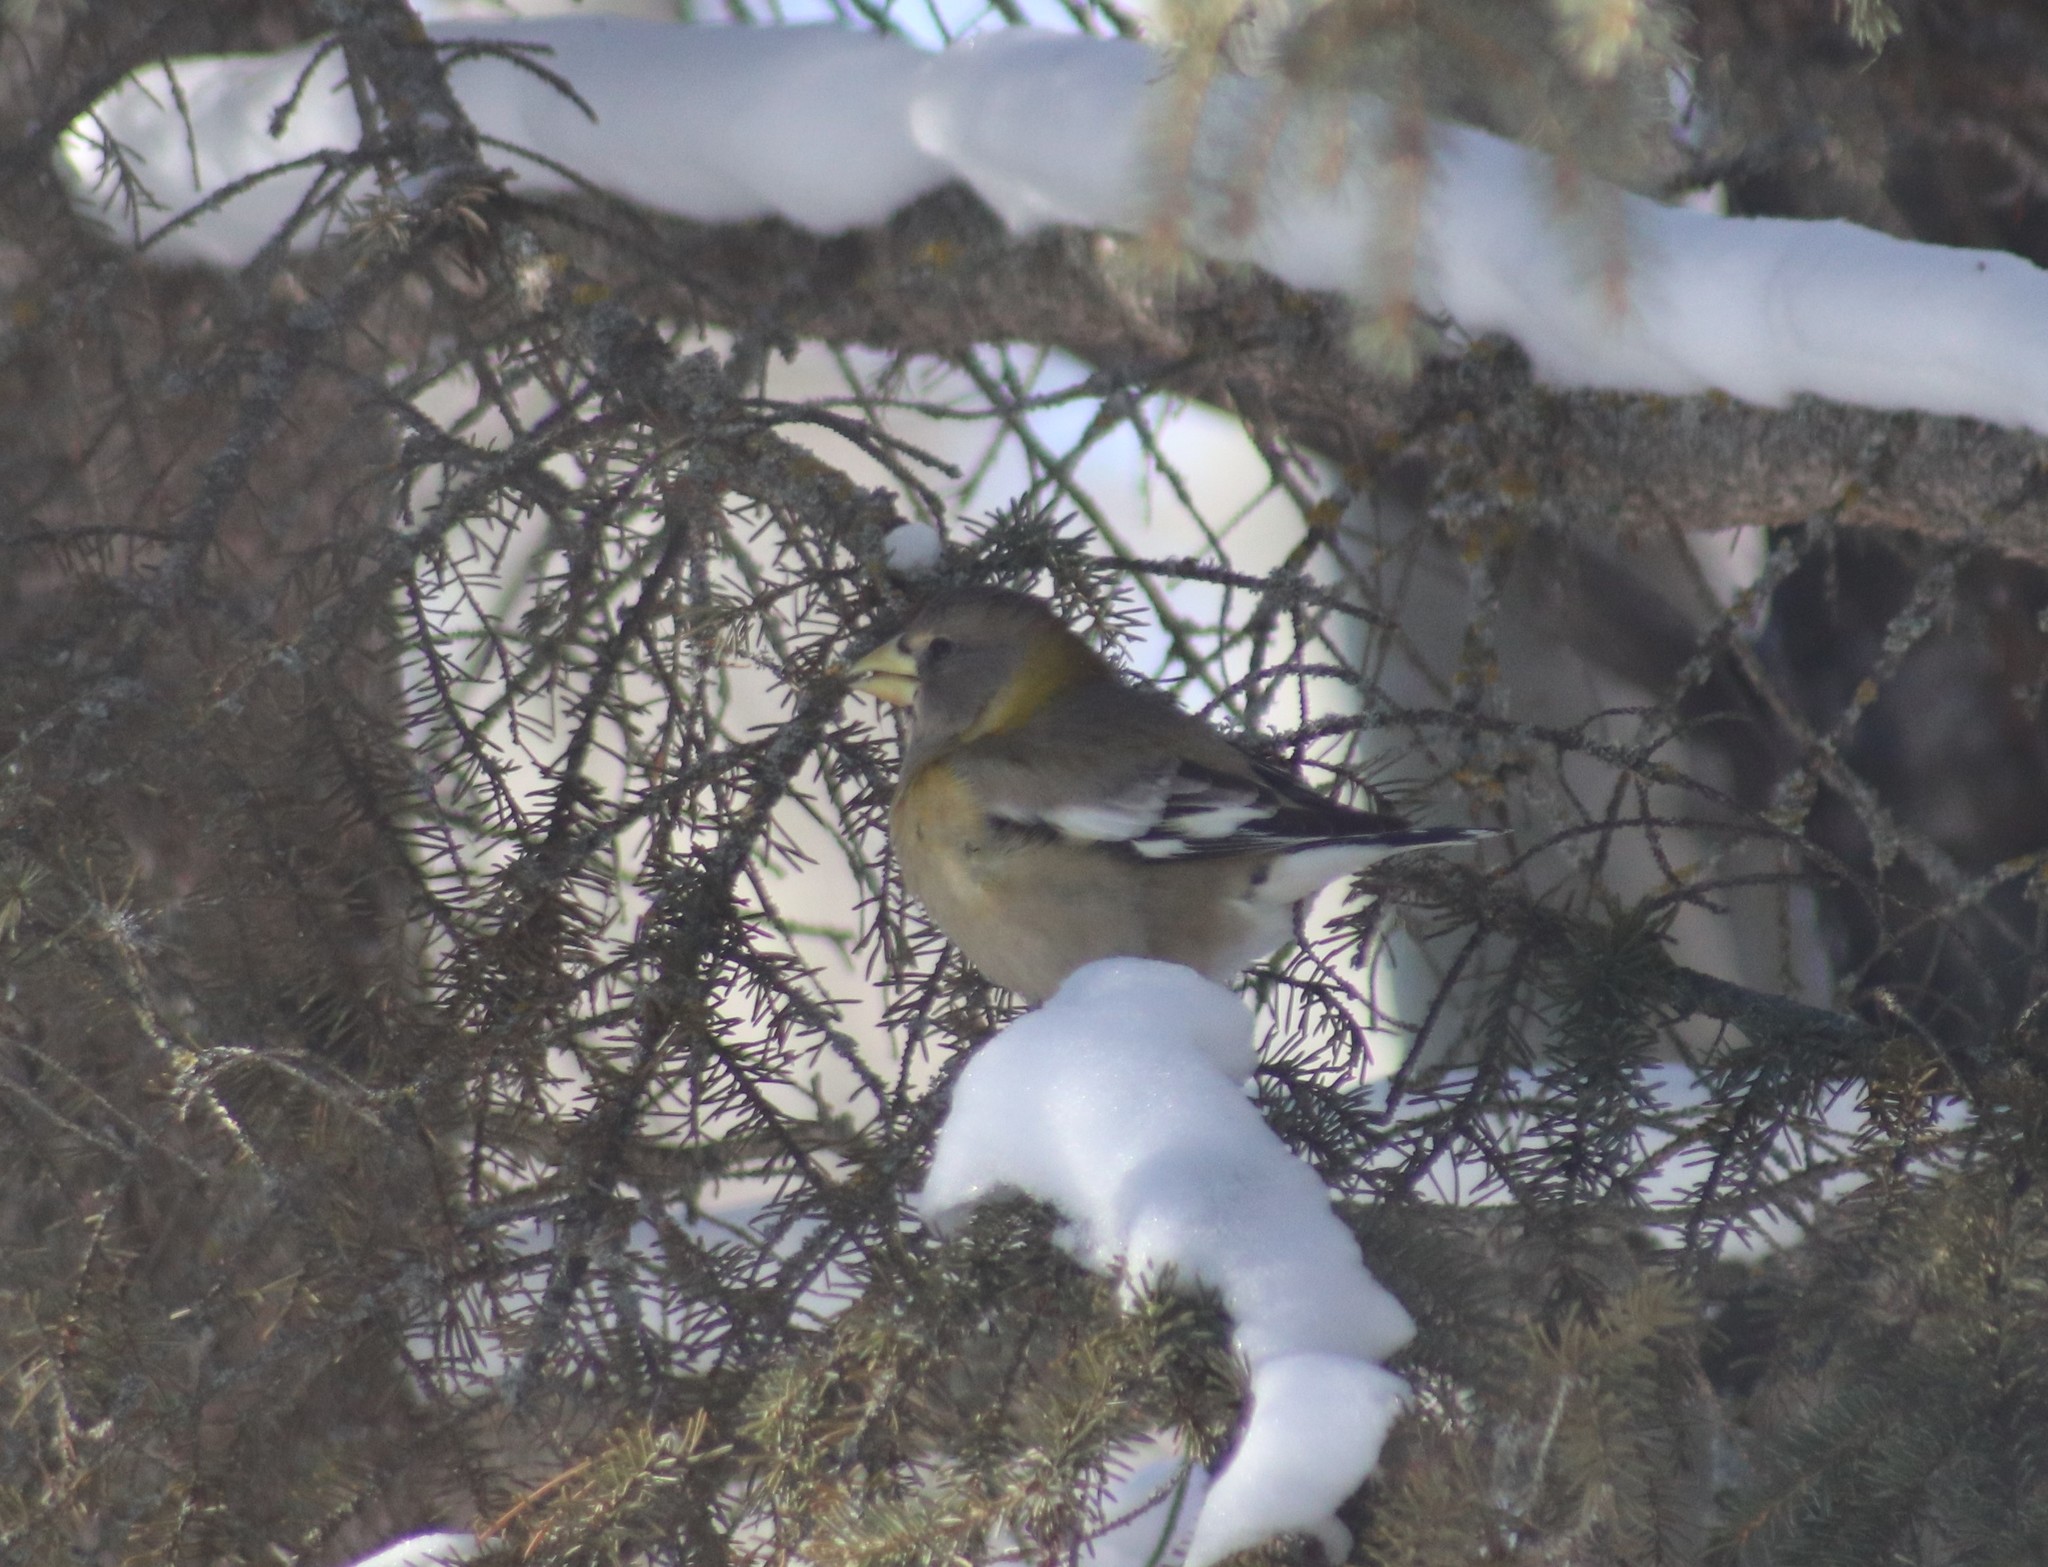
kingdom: Animalia
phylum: Chordata
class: Aves
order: Passeriformes
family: Fringillidae
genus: Hesperiphona
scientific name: Hesperiphona vespertina
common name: Evening grosbeak
